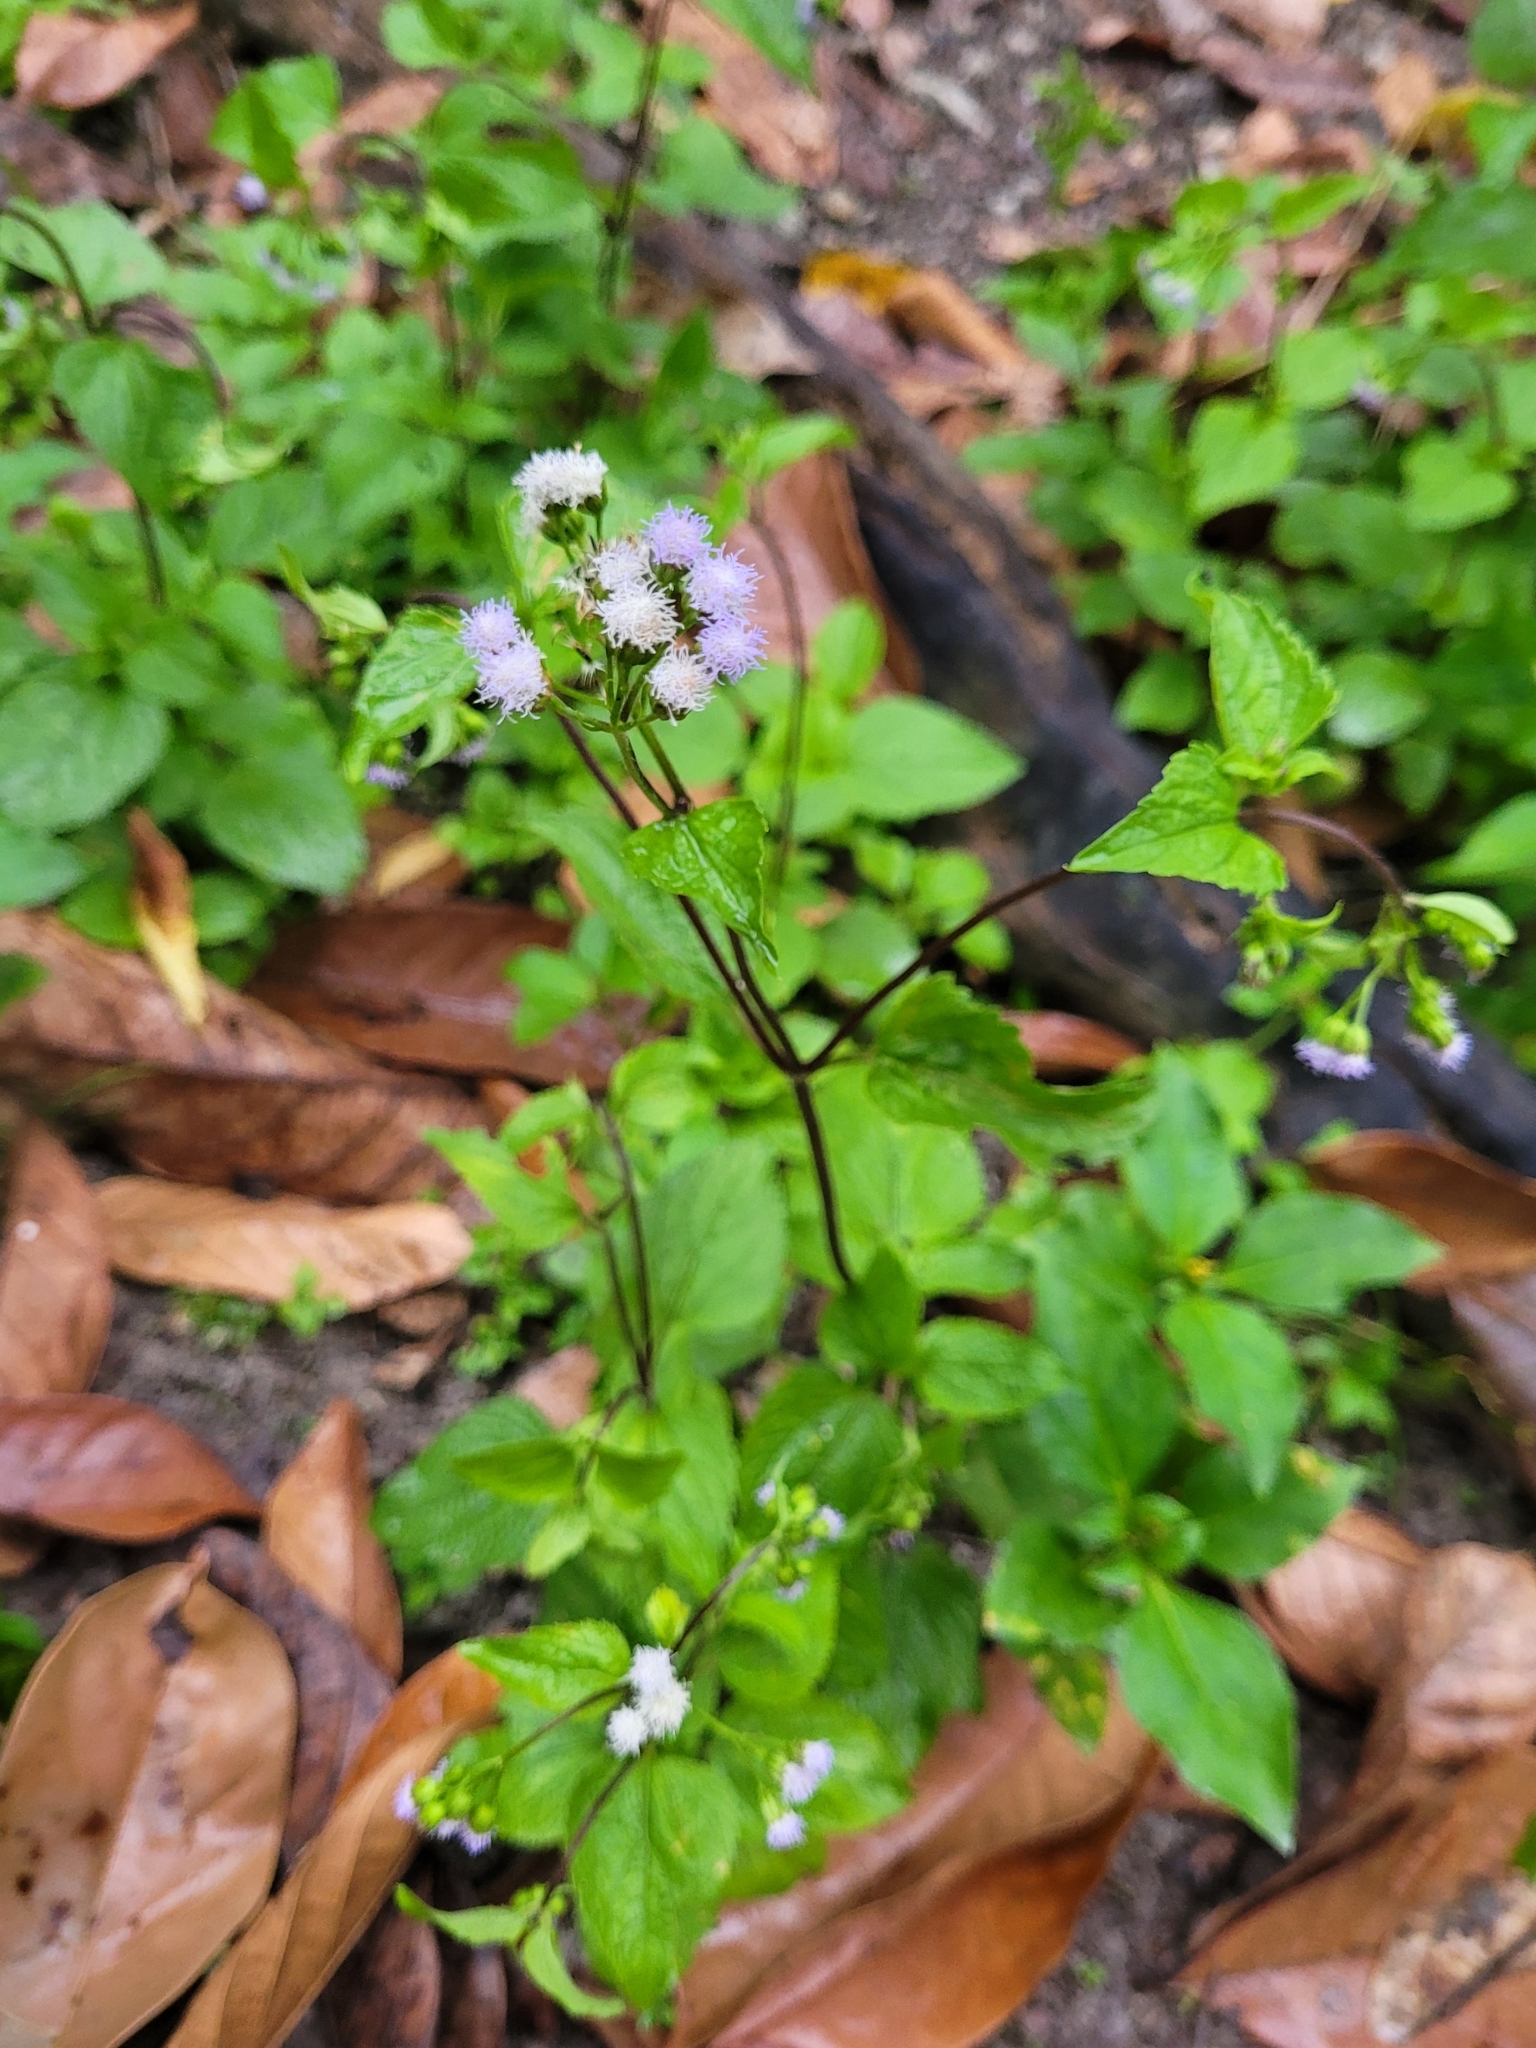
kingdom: Plantae
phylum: Tracheophyta
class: Magnoliopsida
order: Asterales
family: Asteraceae
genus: Ageratum
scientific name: Ageratum conyzoides
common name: Tropical whiteweed
